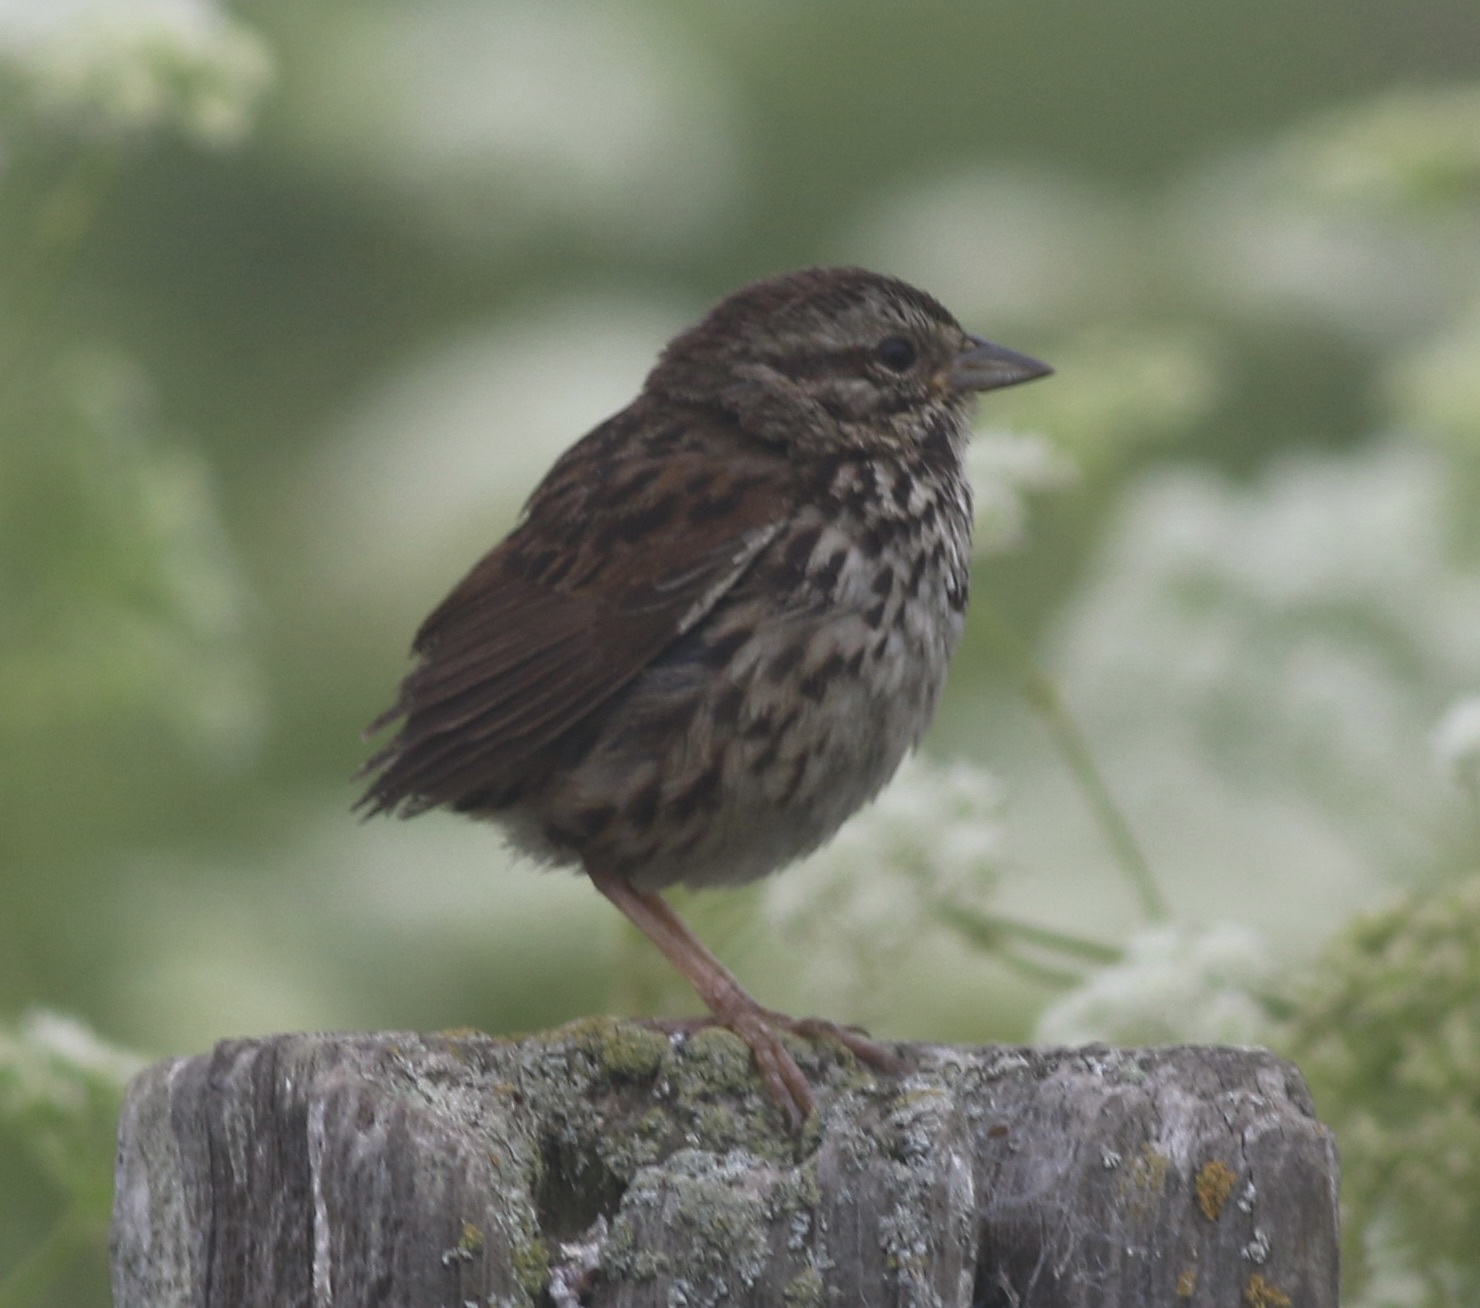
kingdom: Animalia
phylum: Chordata
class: Aves
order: Passeriformes
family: Passerellidae
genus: Melospiza
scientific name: Melospiza melodia
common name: Song sparrow
